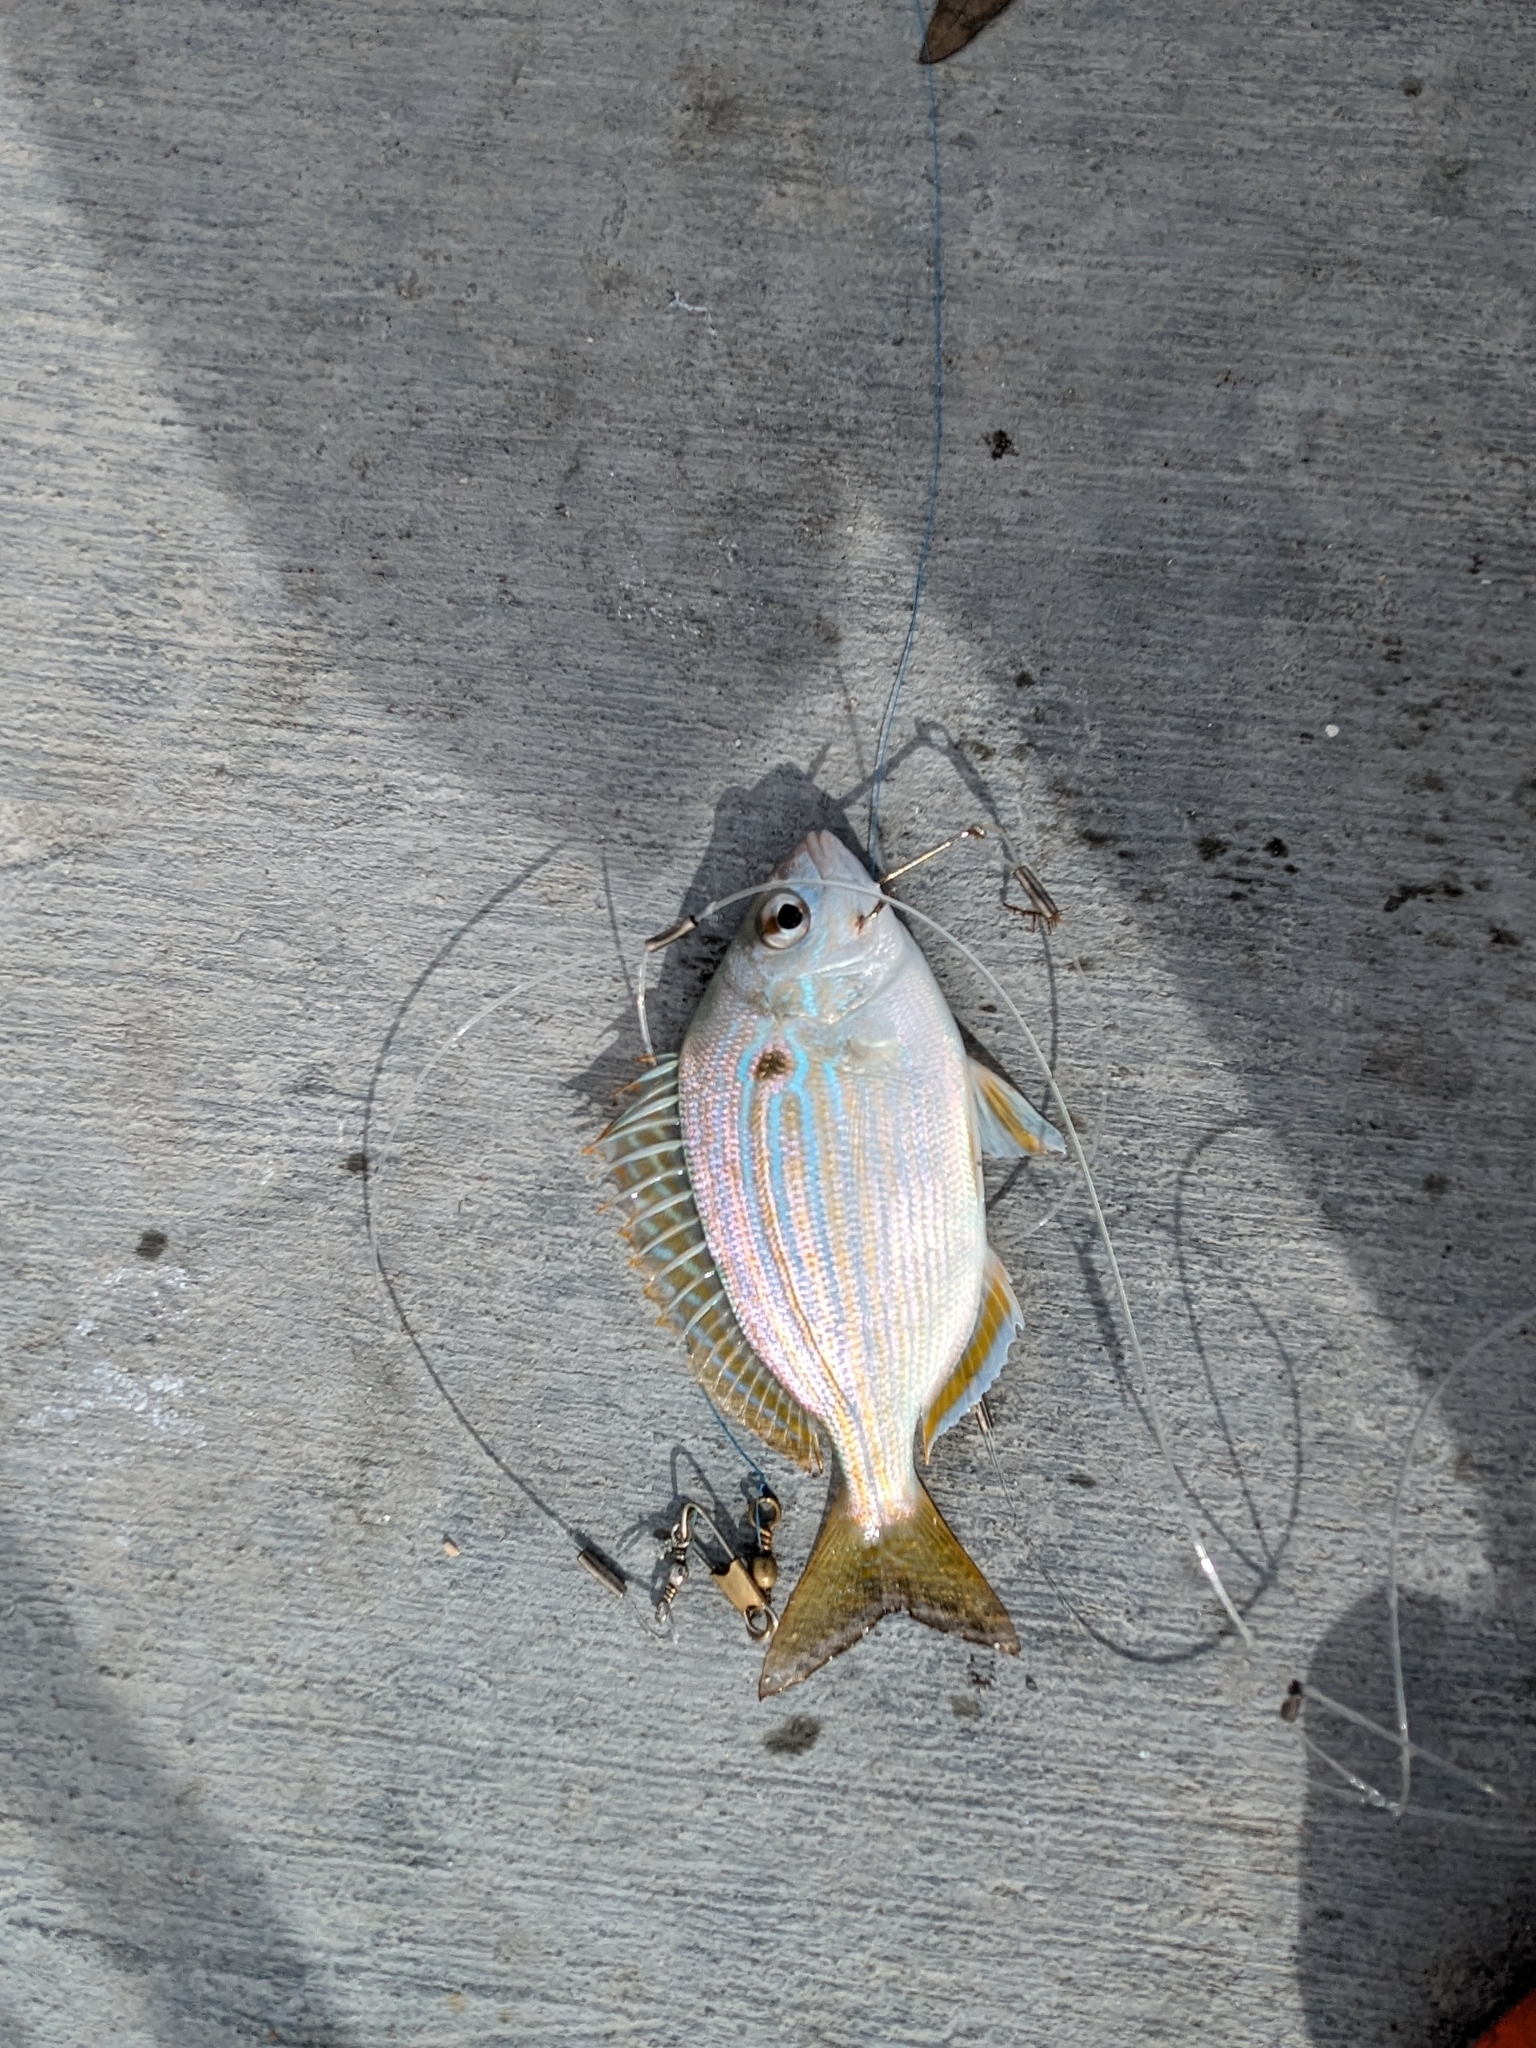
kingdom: Animalia
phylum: Chordata
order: Perciformes
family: Sparidae
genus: Lagodon
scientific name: Lagodon rhomboides
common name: Pinfish
